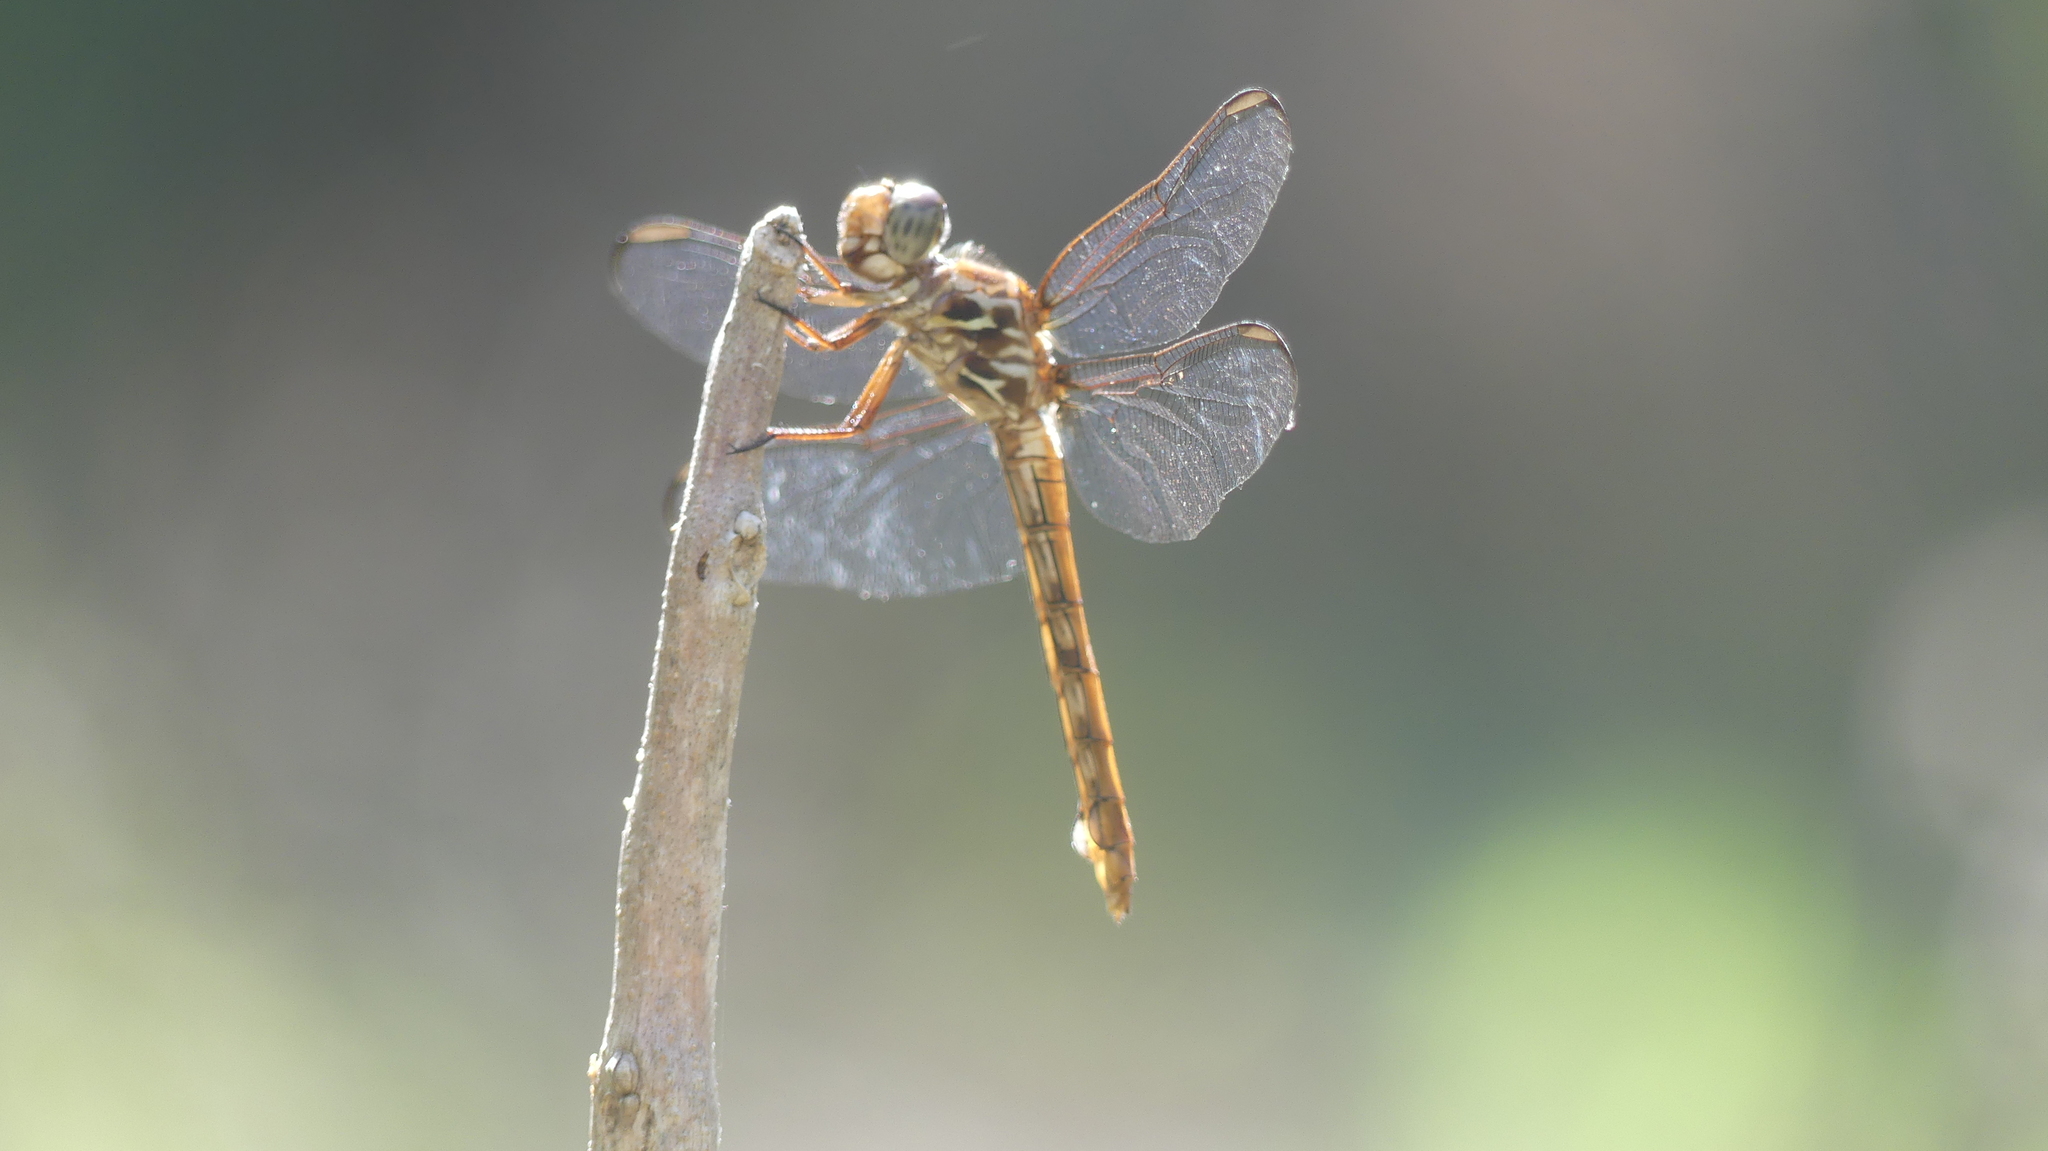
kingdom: Animalia
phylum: Arthropoda
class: Insecta
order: Odonata
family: Libellulidae
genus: Orthemis
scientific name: Orthemis ferruginea
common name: Roseate skimmer
